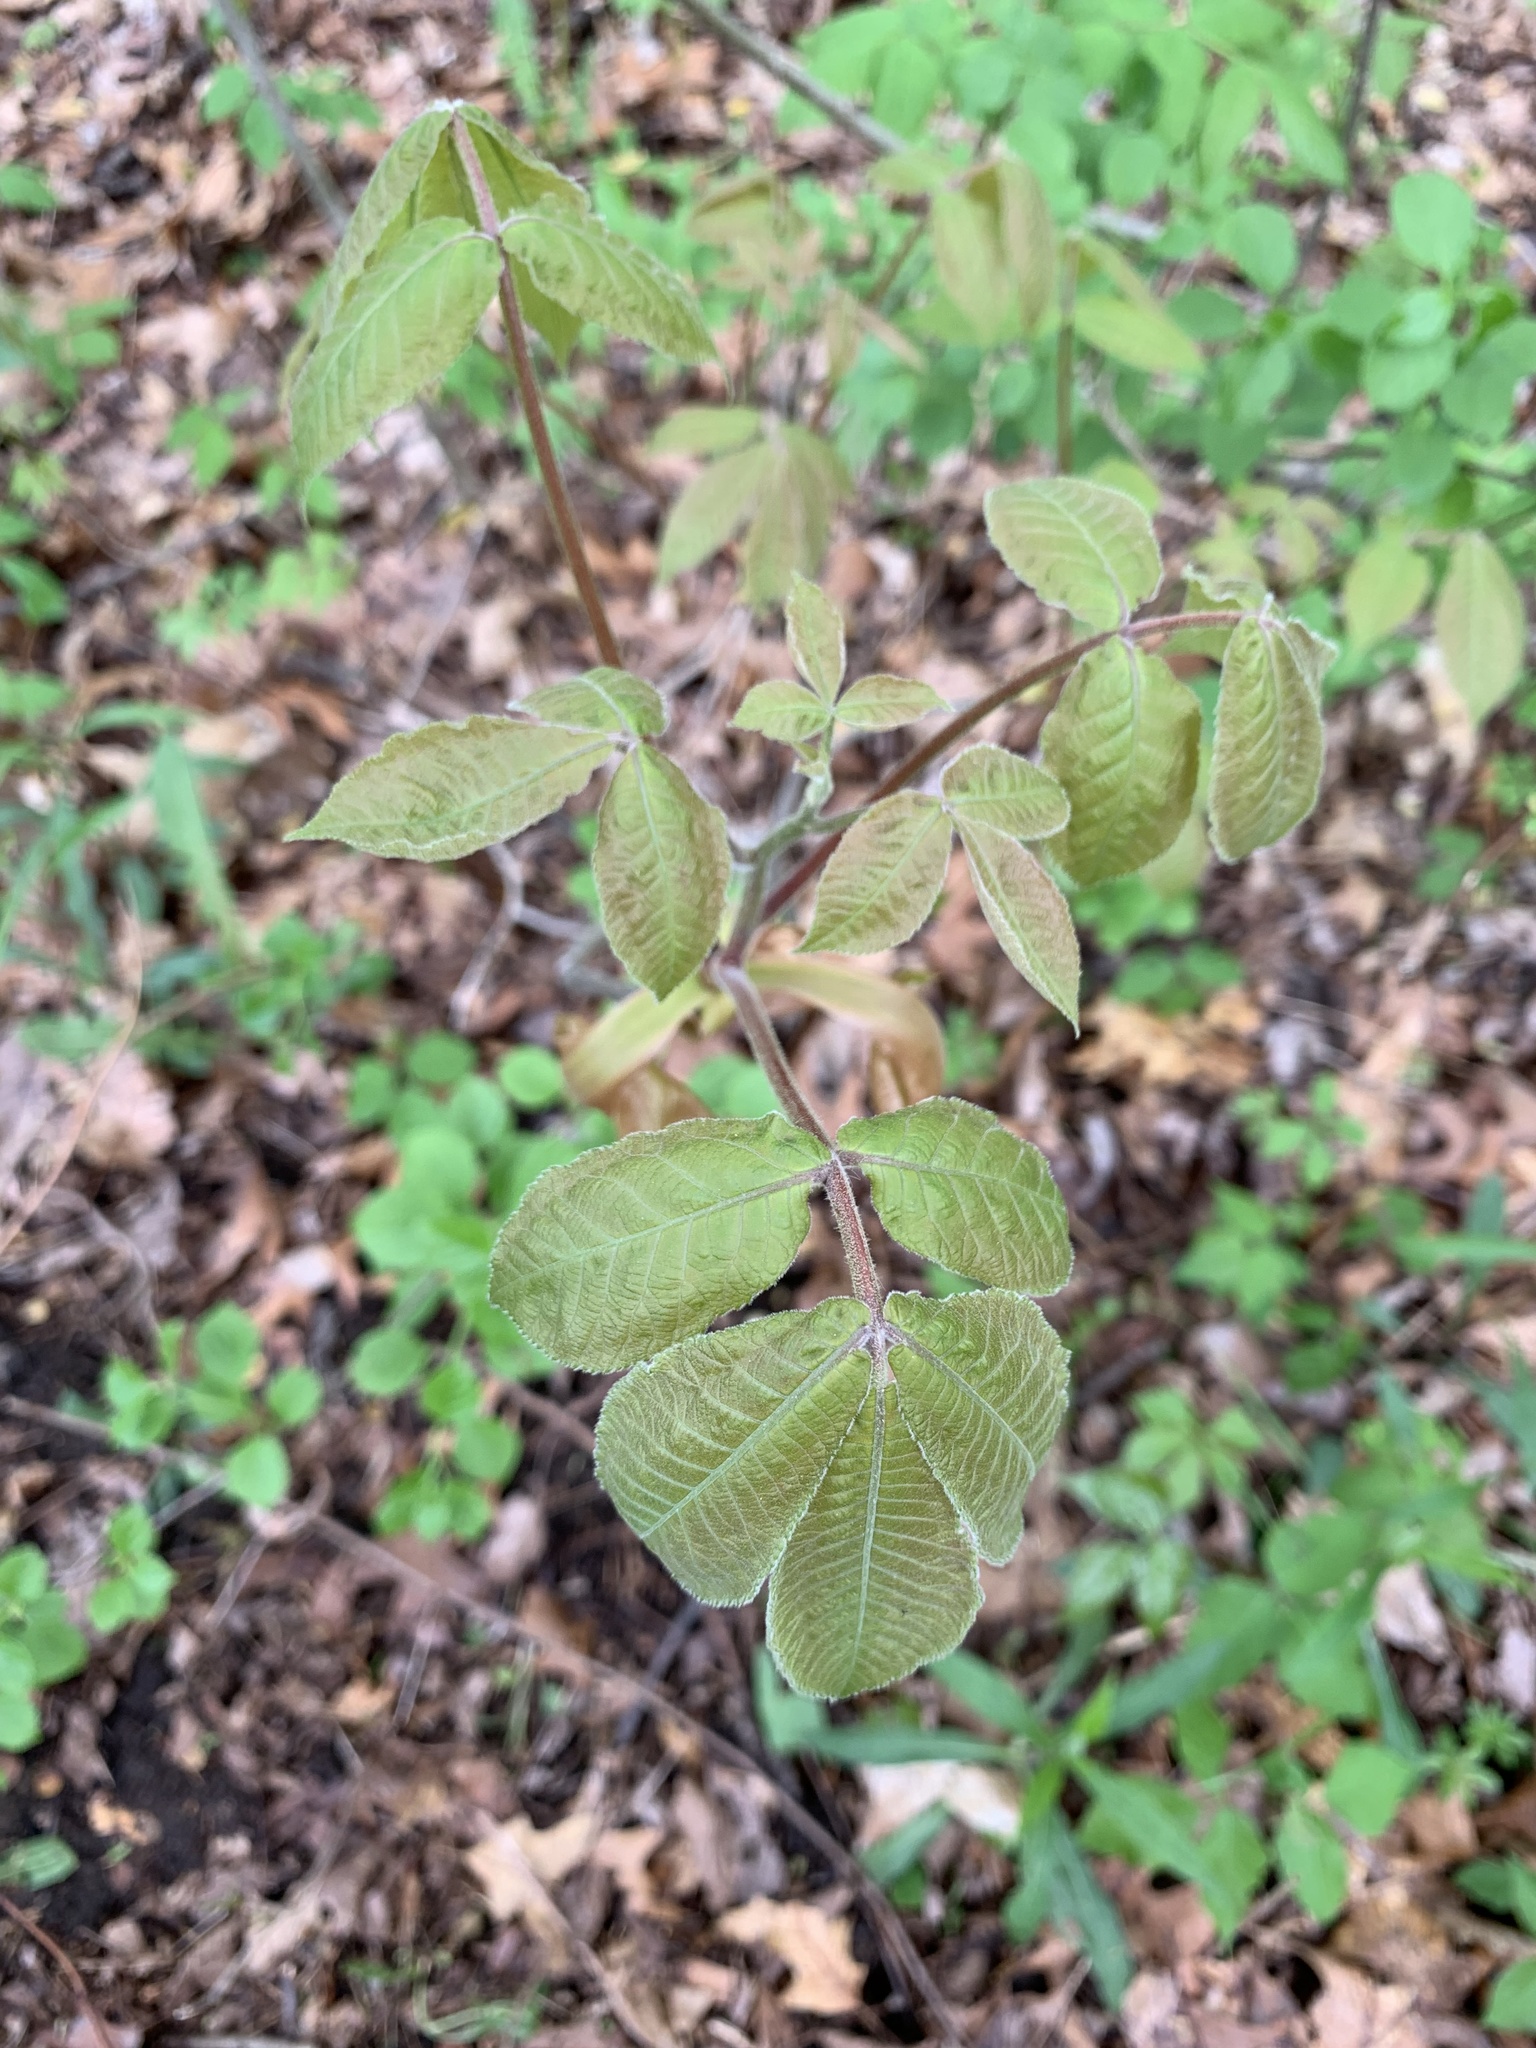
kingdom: Plantae
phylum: Tracheophyta
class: Magnoliopsida
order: Fagales
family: Juglandaceae
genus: Carya
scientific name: Carya alba
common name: Mockernut hickory
